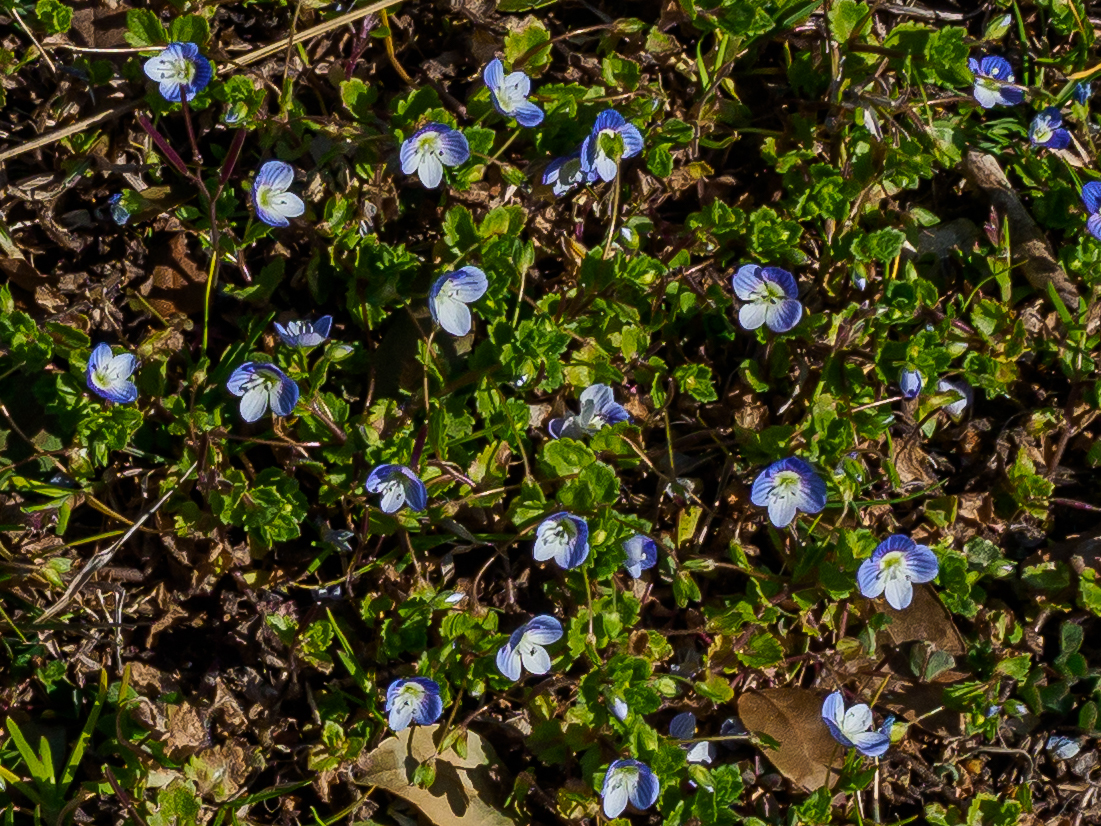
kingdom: Plantae
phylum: Tracheophyta
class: Magnoliopsida
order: Lamiales
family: Plantaginaceae
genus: Veronica
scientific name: Veronica persica
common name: Common field-speedwell
